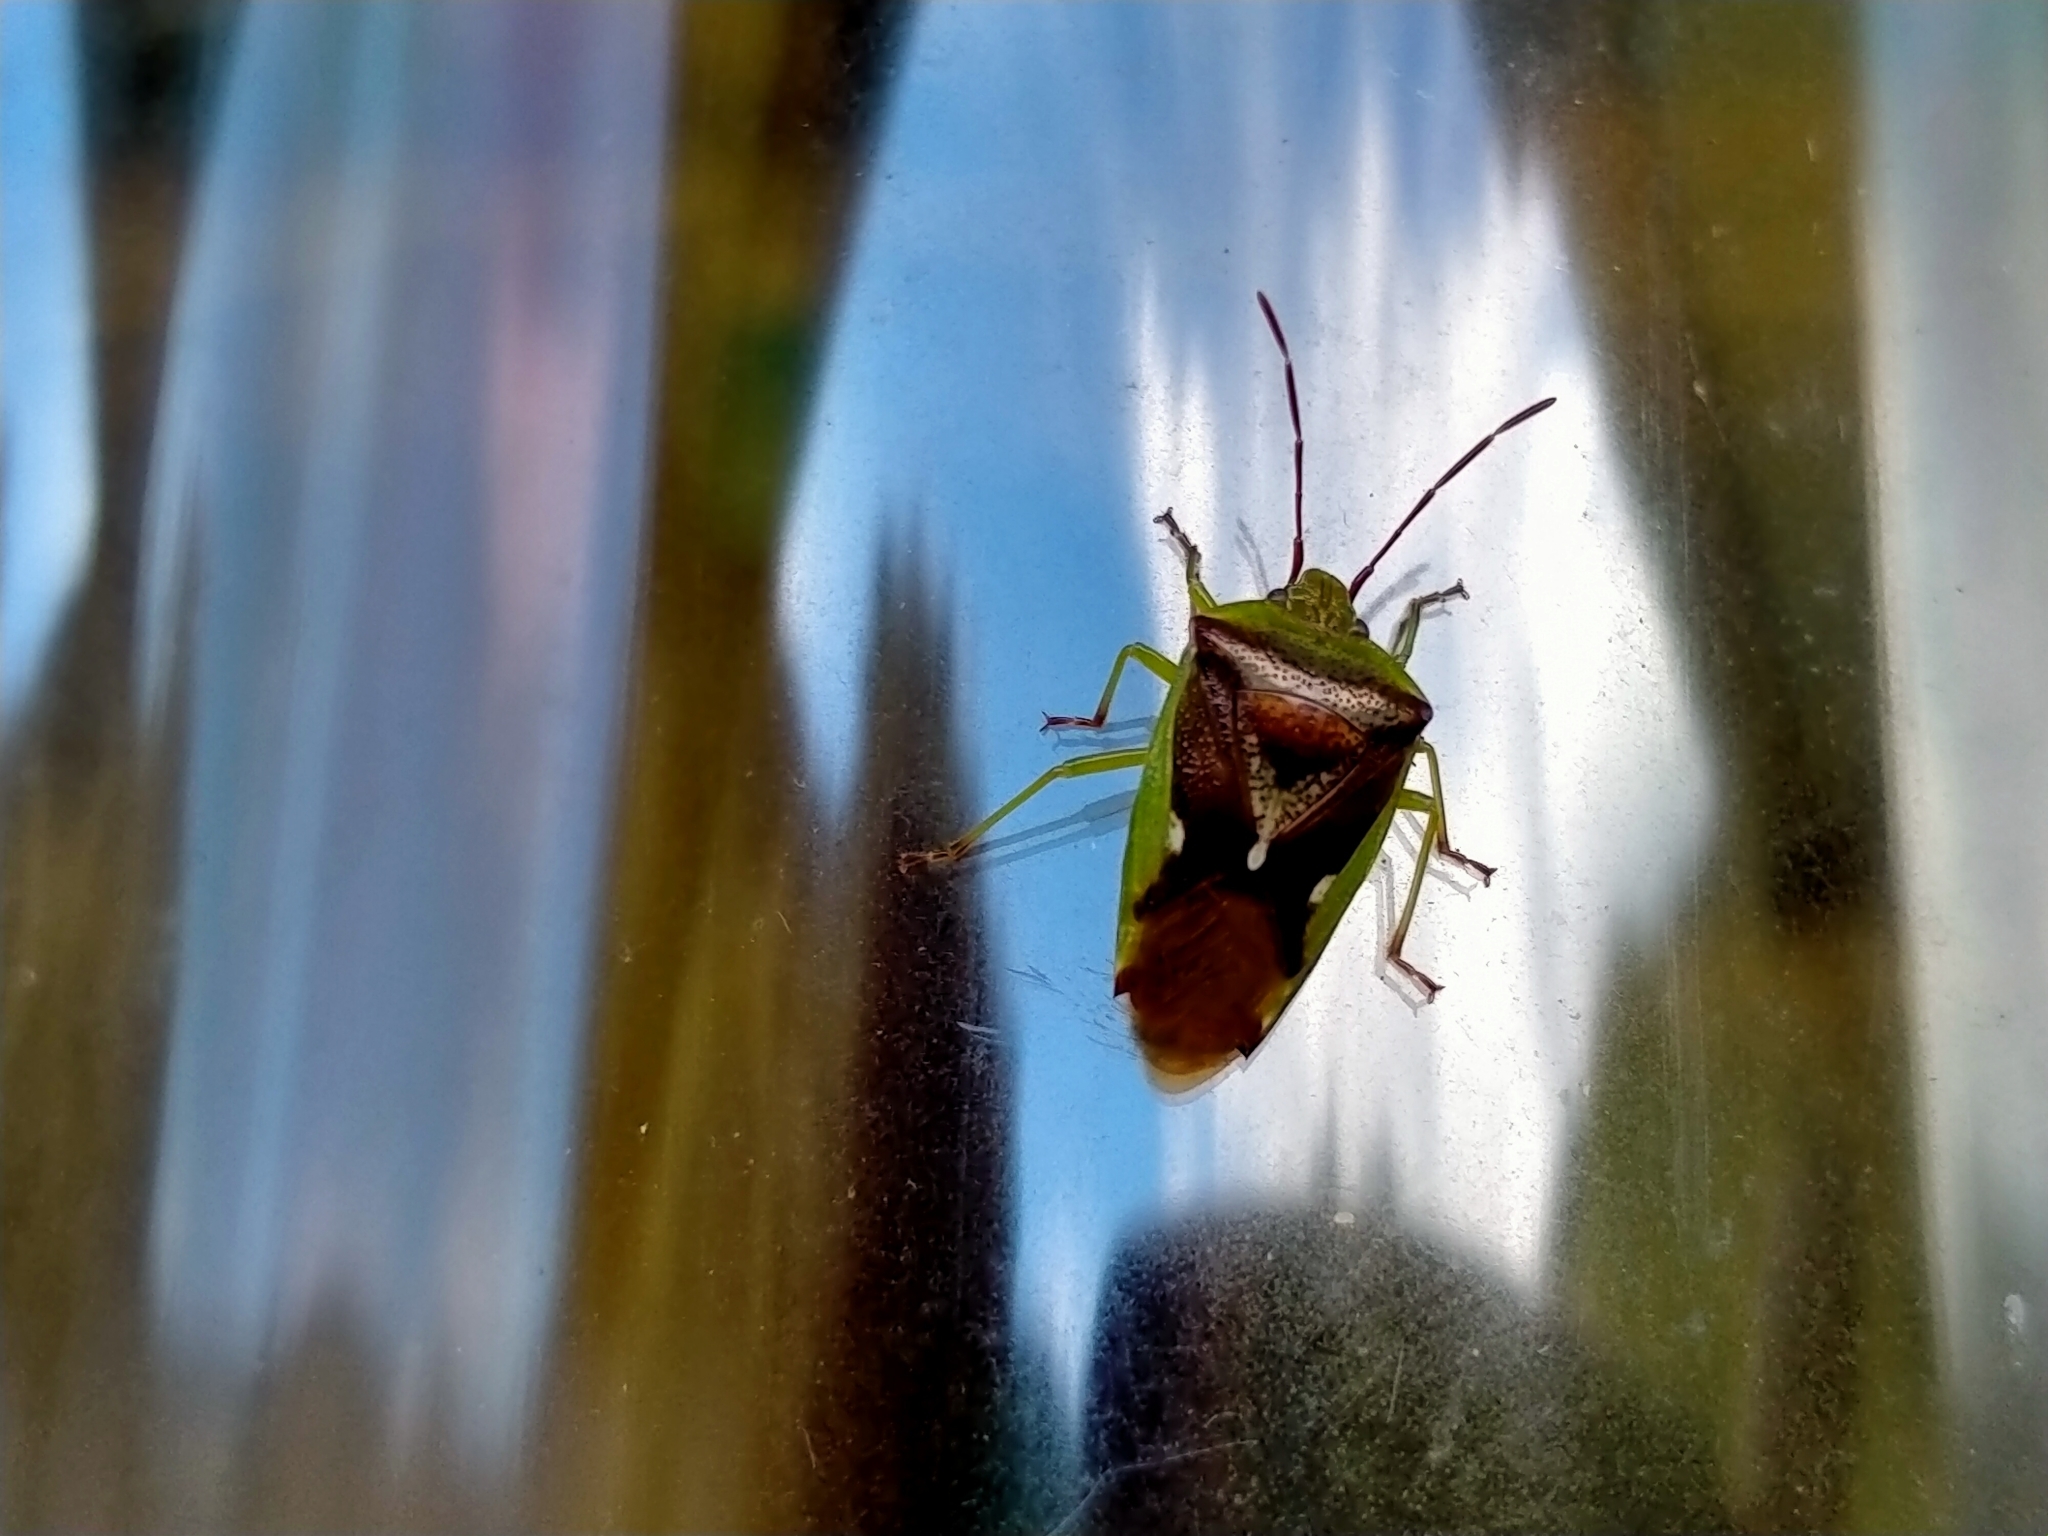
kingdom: Animalia
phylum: Arthropoda
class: Insecta
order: Hemiptera
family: Acanthosomatidae
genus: Oncacontias
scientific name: Oncacontias vittatus
